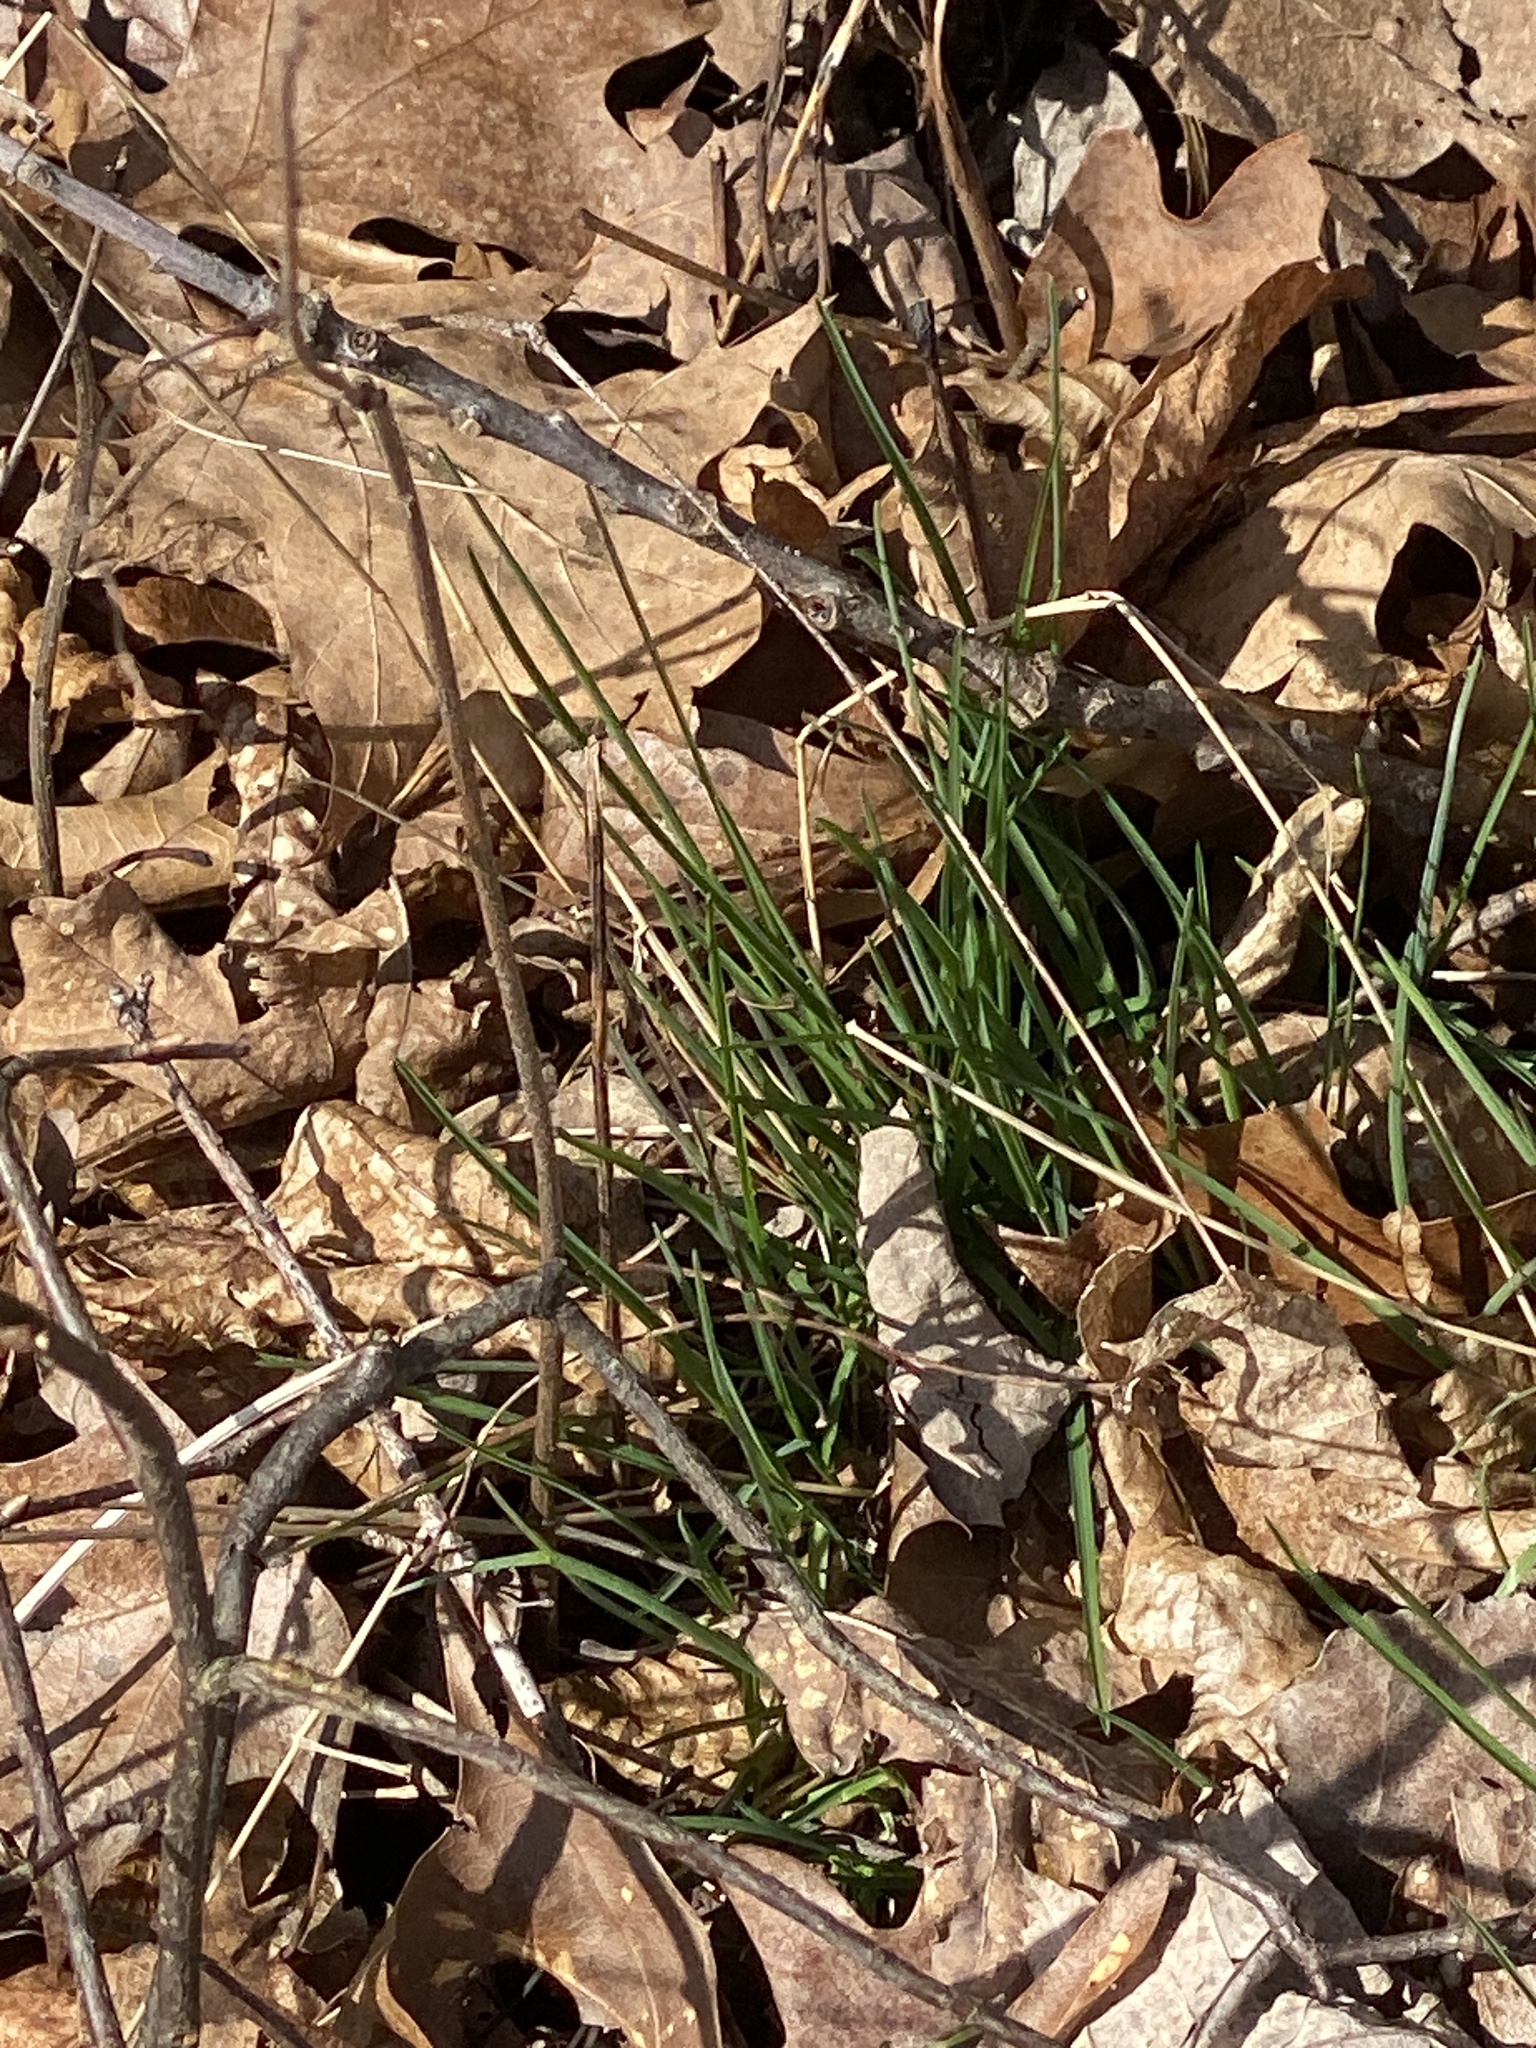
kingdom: Plantae
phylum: Tracheophyta
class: Liliopsida
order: Asparagales
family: Amaryllidaceae
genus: Allium
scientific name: Allium vineale
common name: Crow garlic
